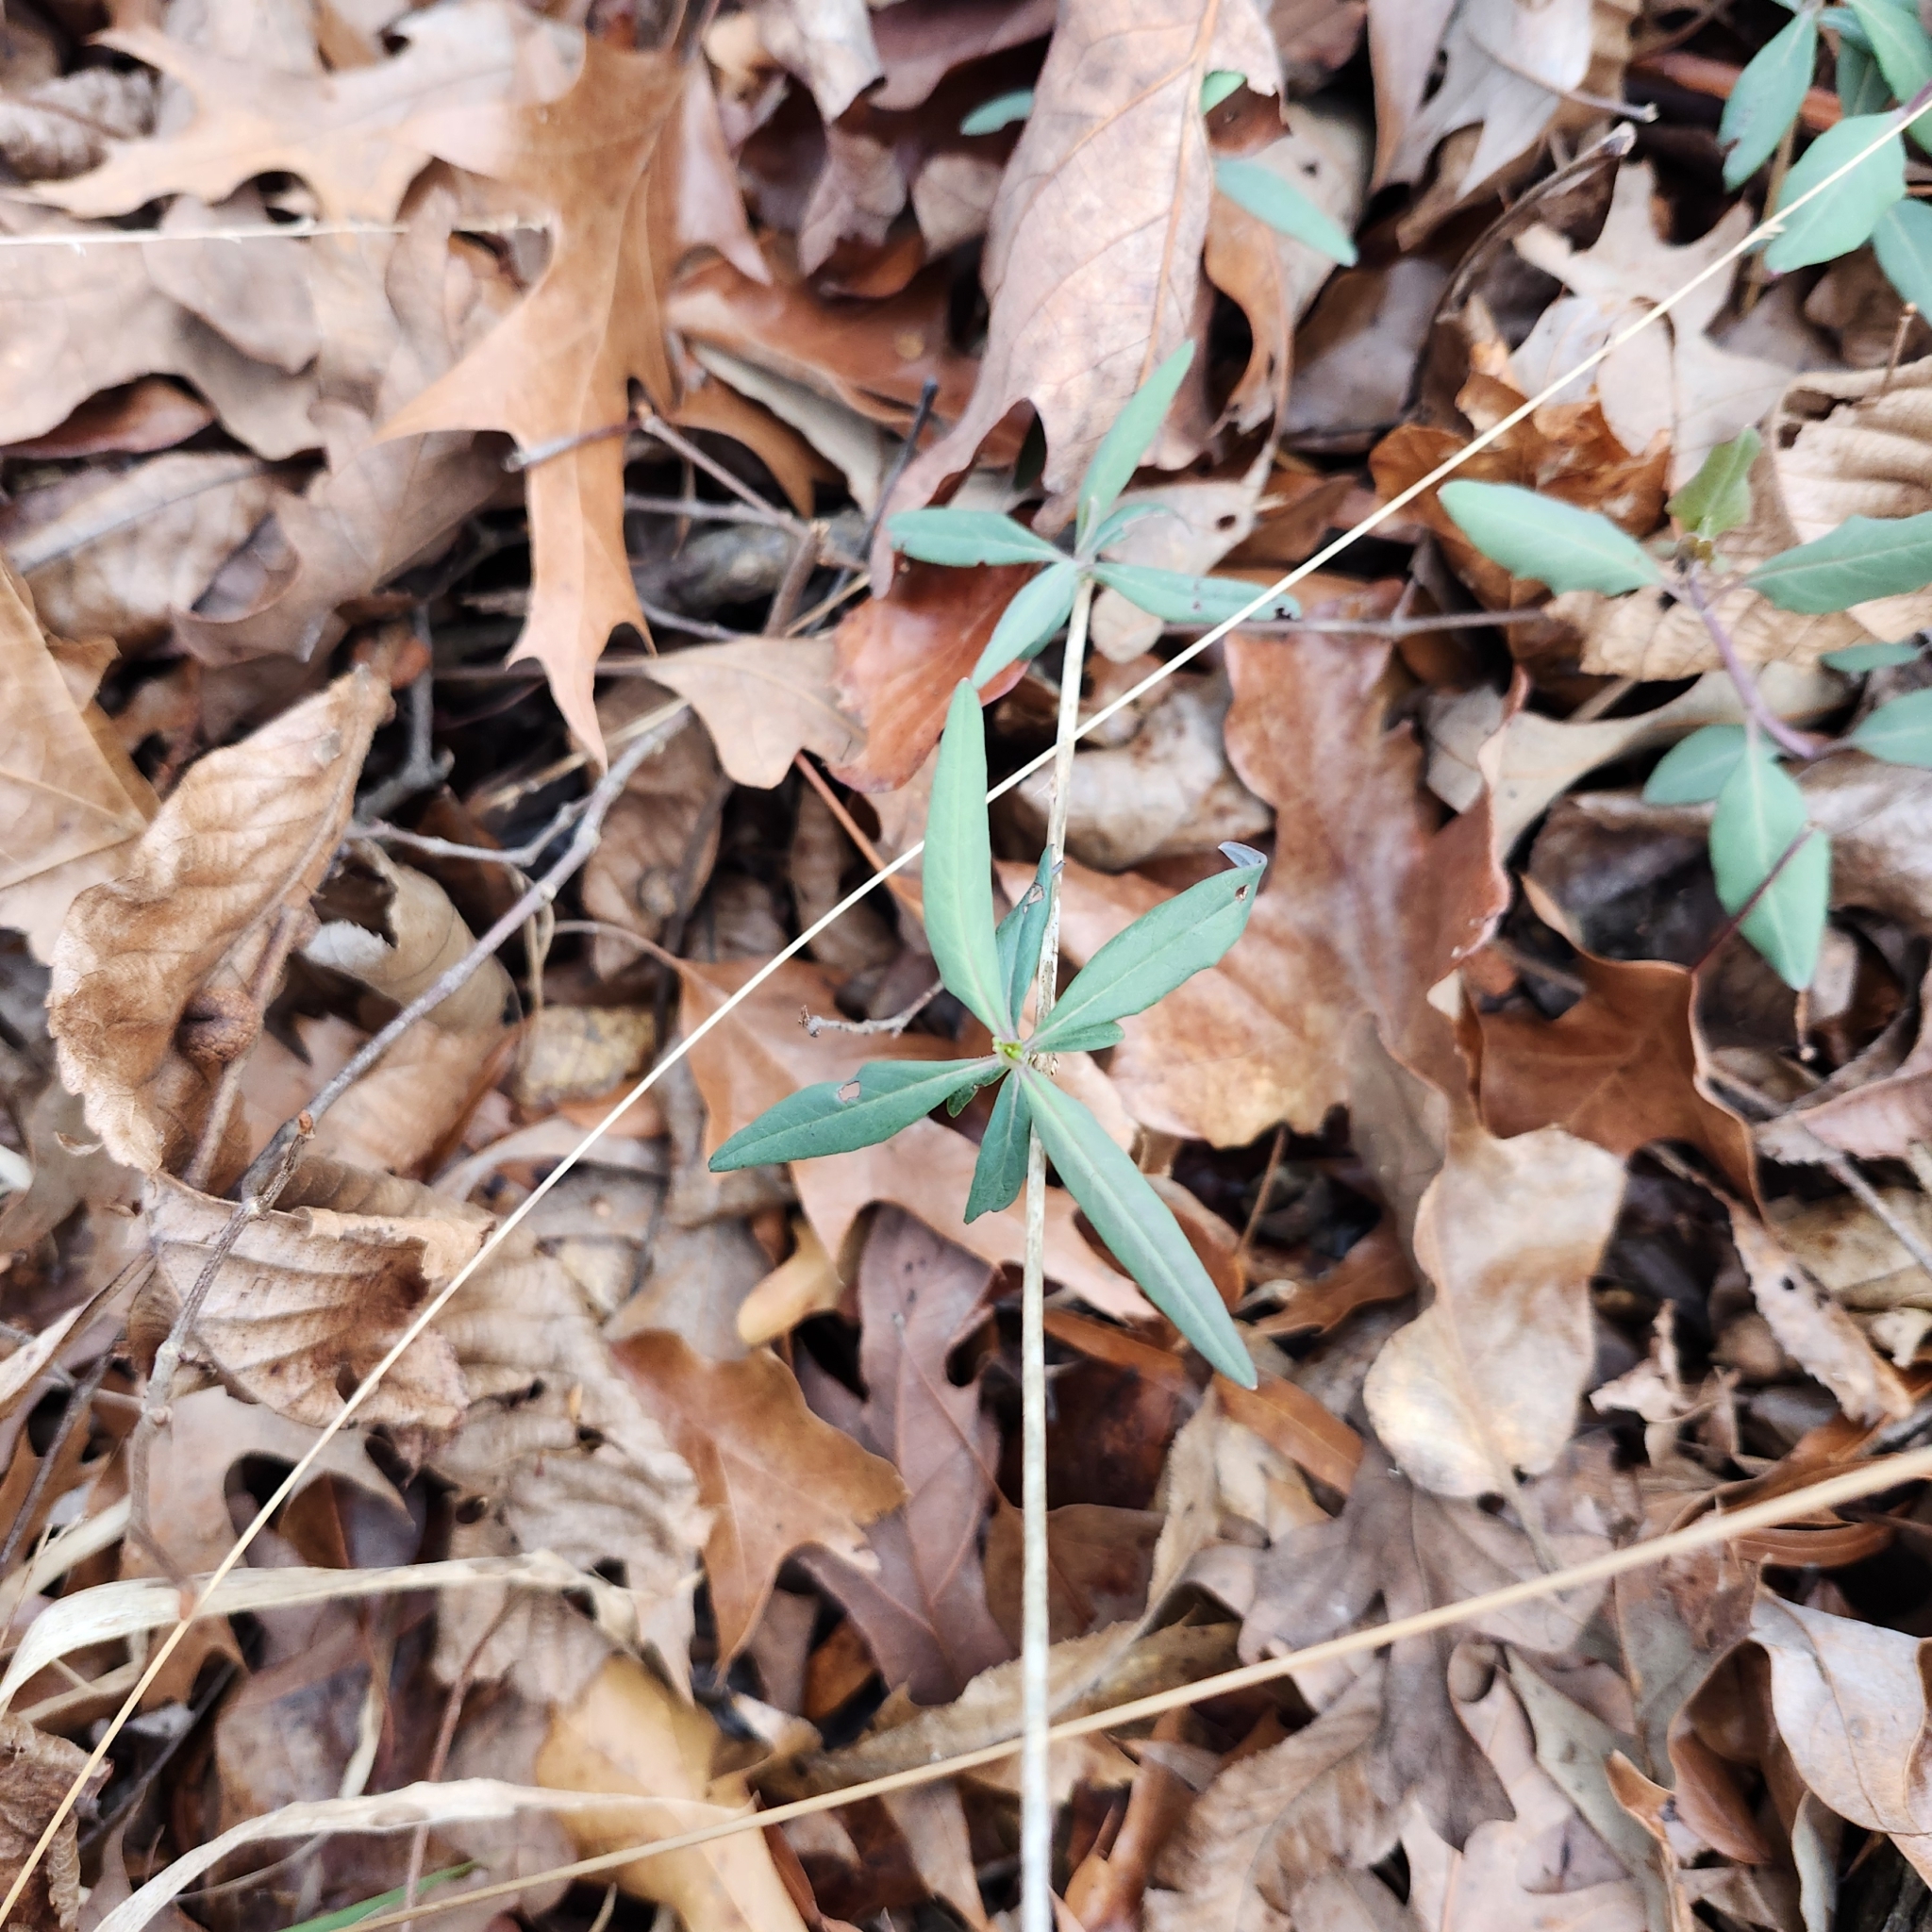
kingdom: Plantae
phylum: Tracheophyta
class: Magnoliopsida
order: Dipsacales
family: Caprifoliaceae
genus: Lonicera
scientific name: Lonicera sempervirens
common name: Coral honeysuckle
